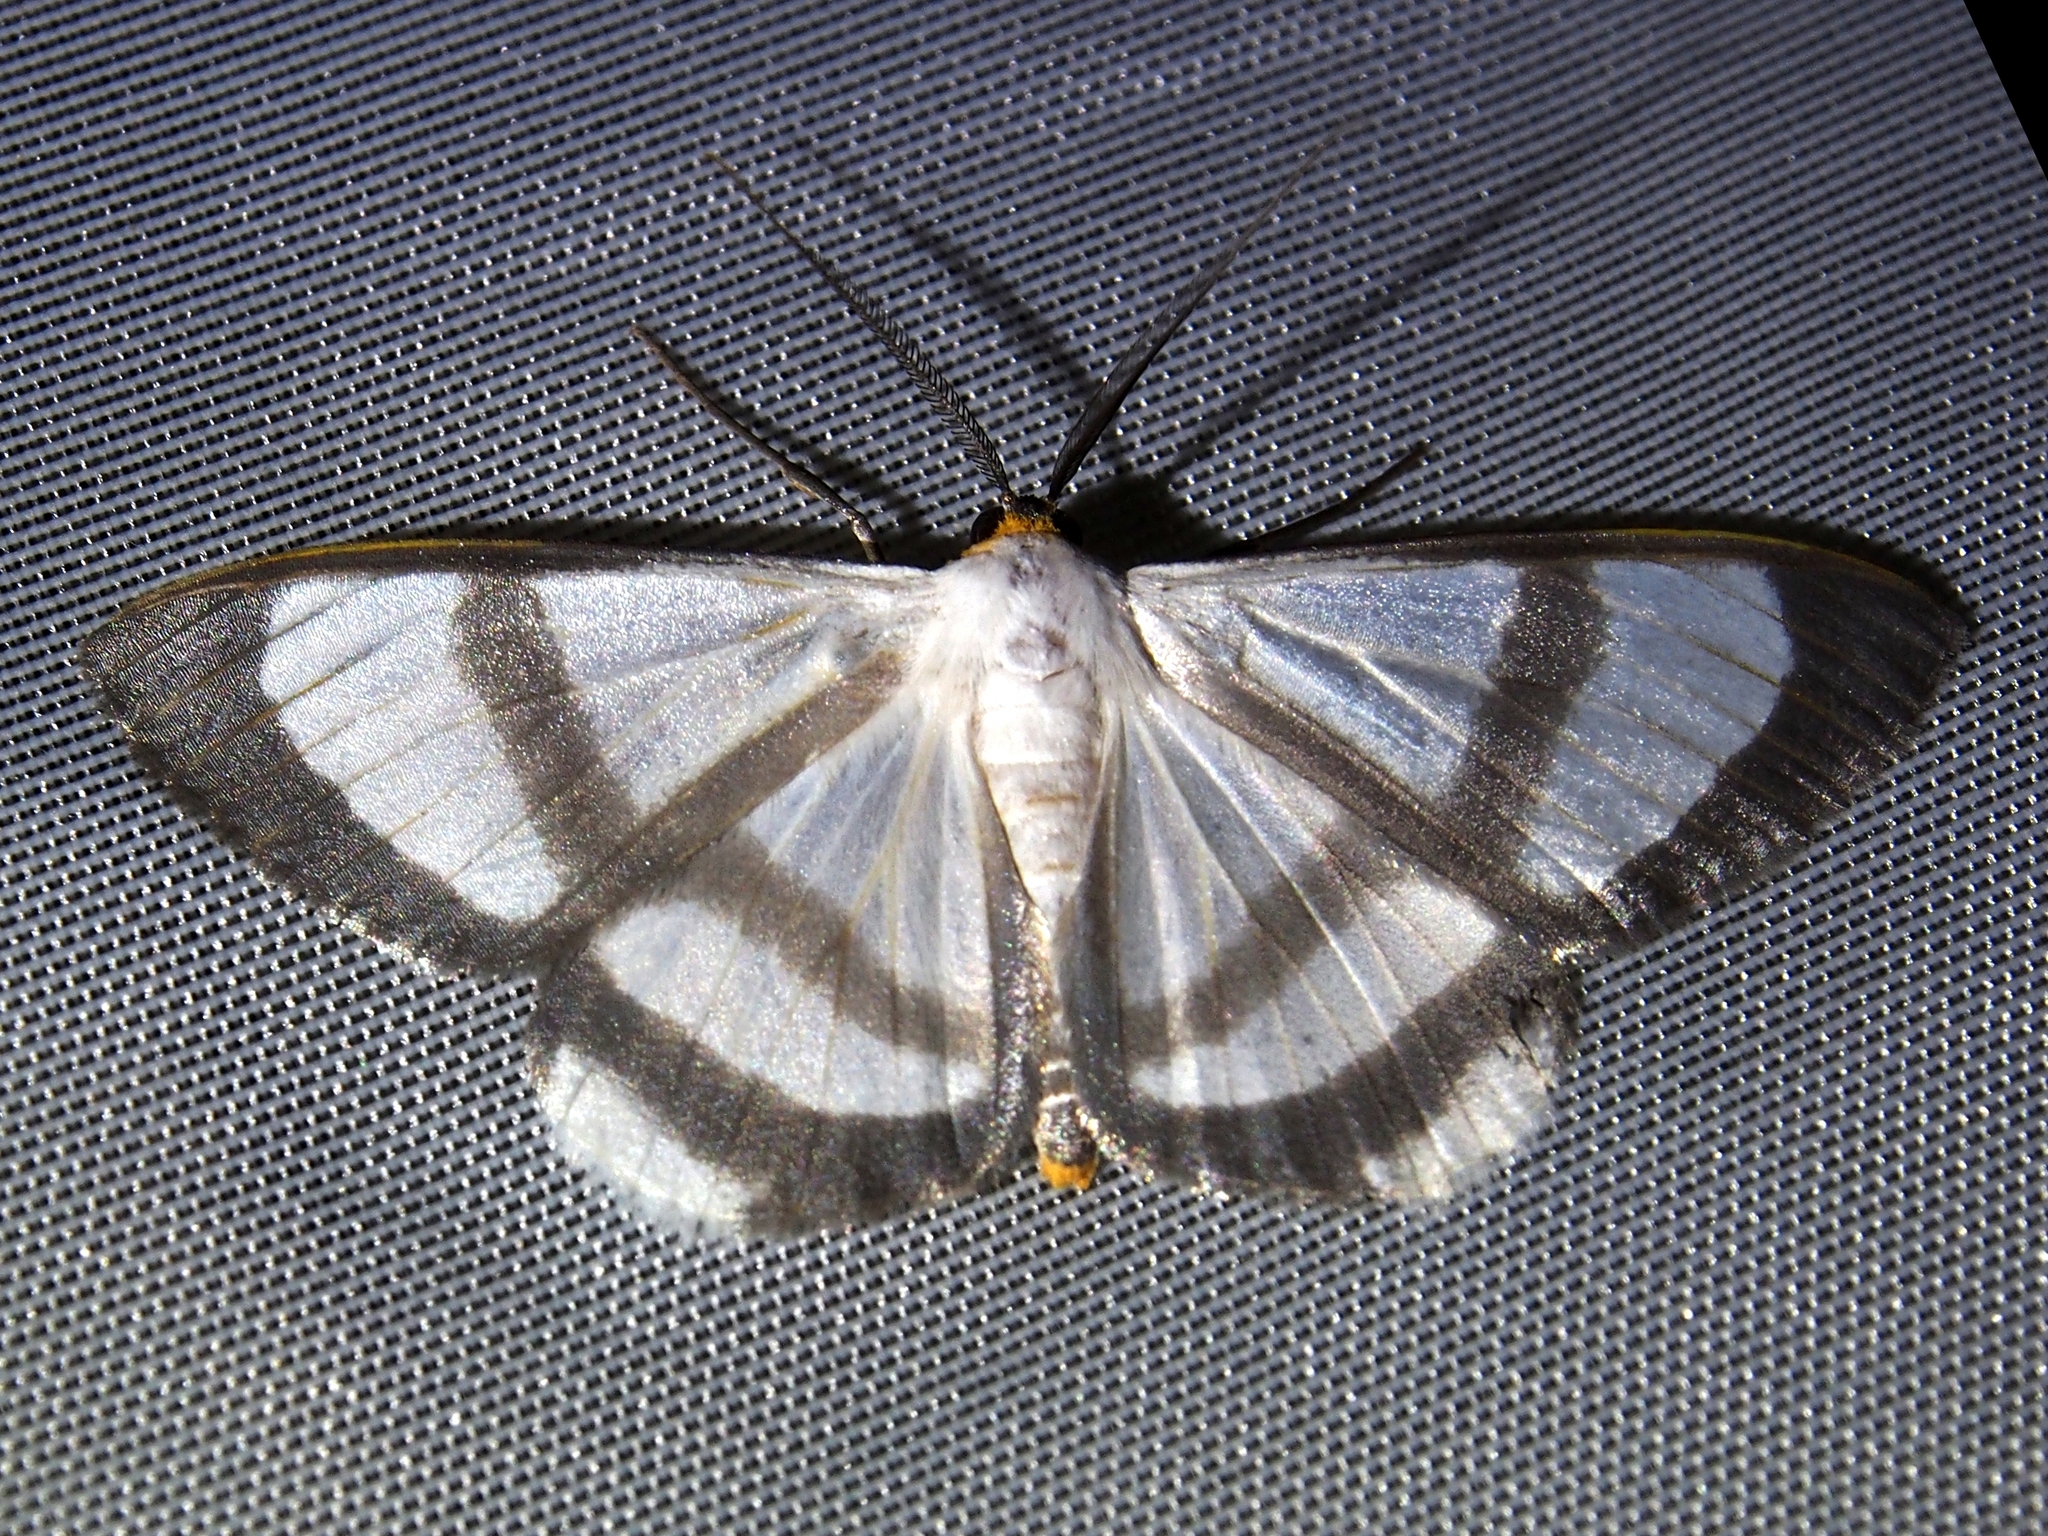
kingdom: Animalia
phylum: Arthropoda
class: Insecta
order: Lepidoptera
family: Geometridae
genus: Perigramma
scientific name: Perigramma repetita
